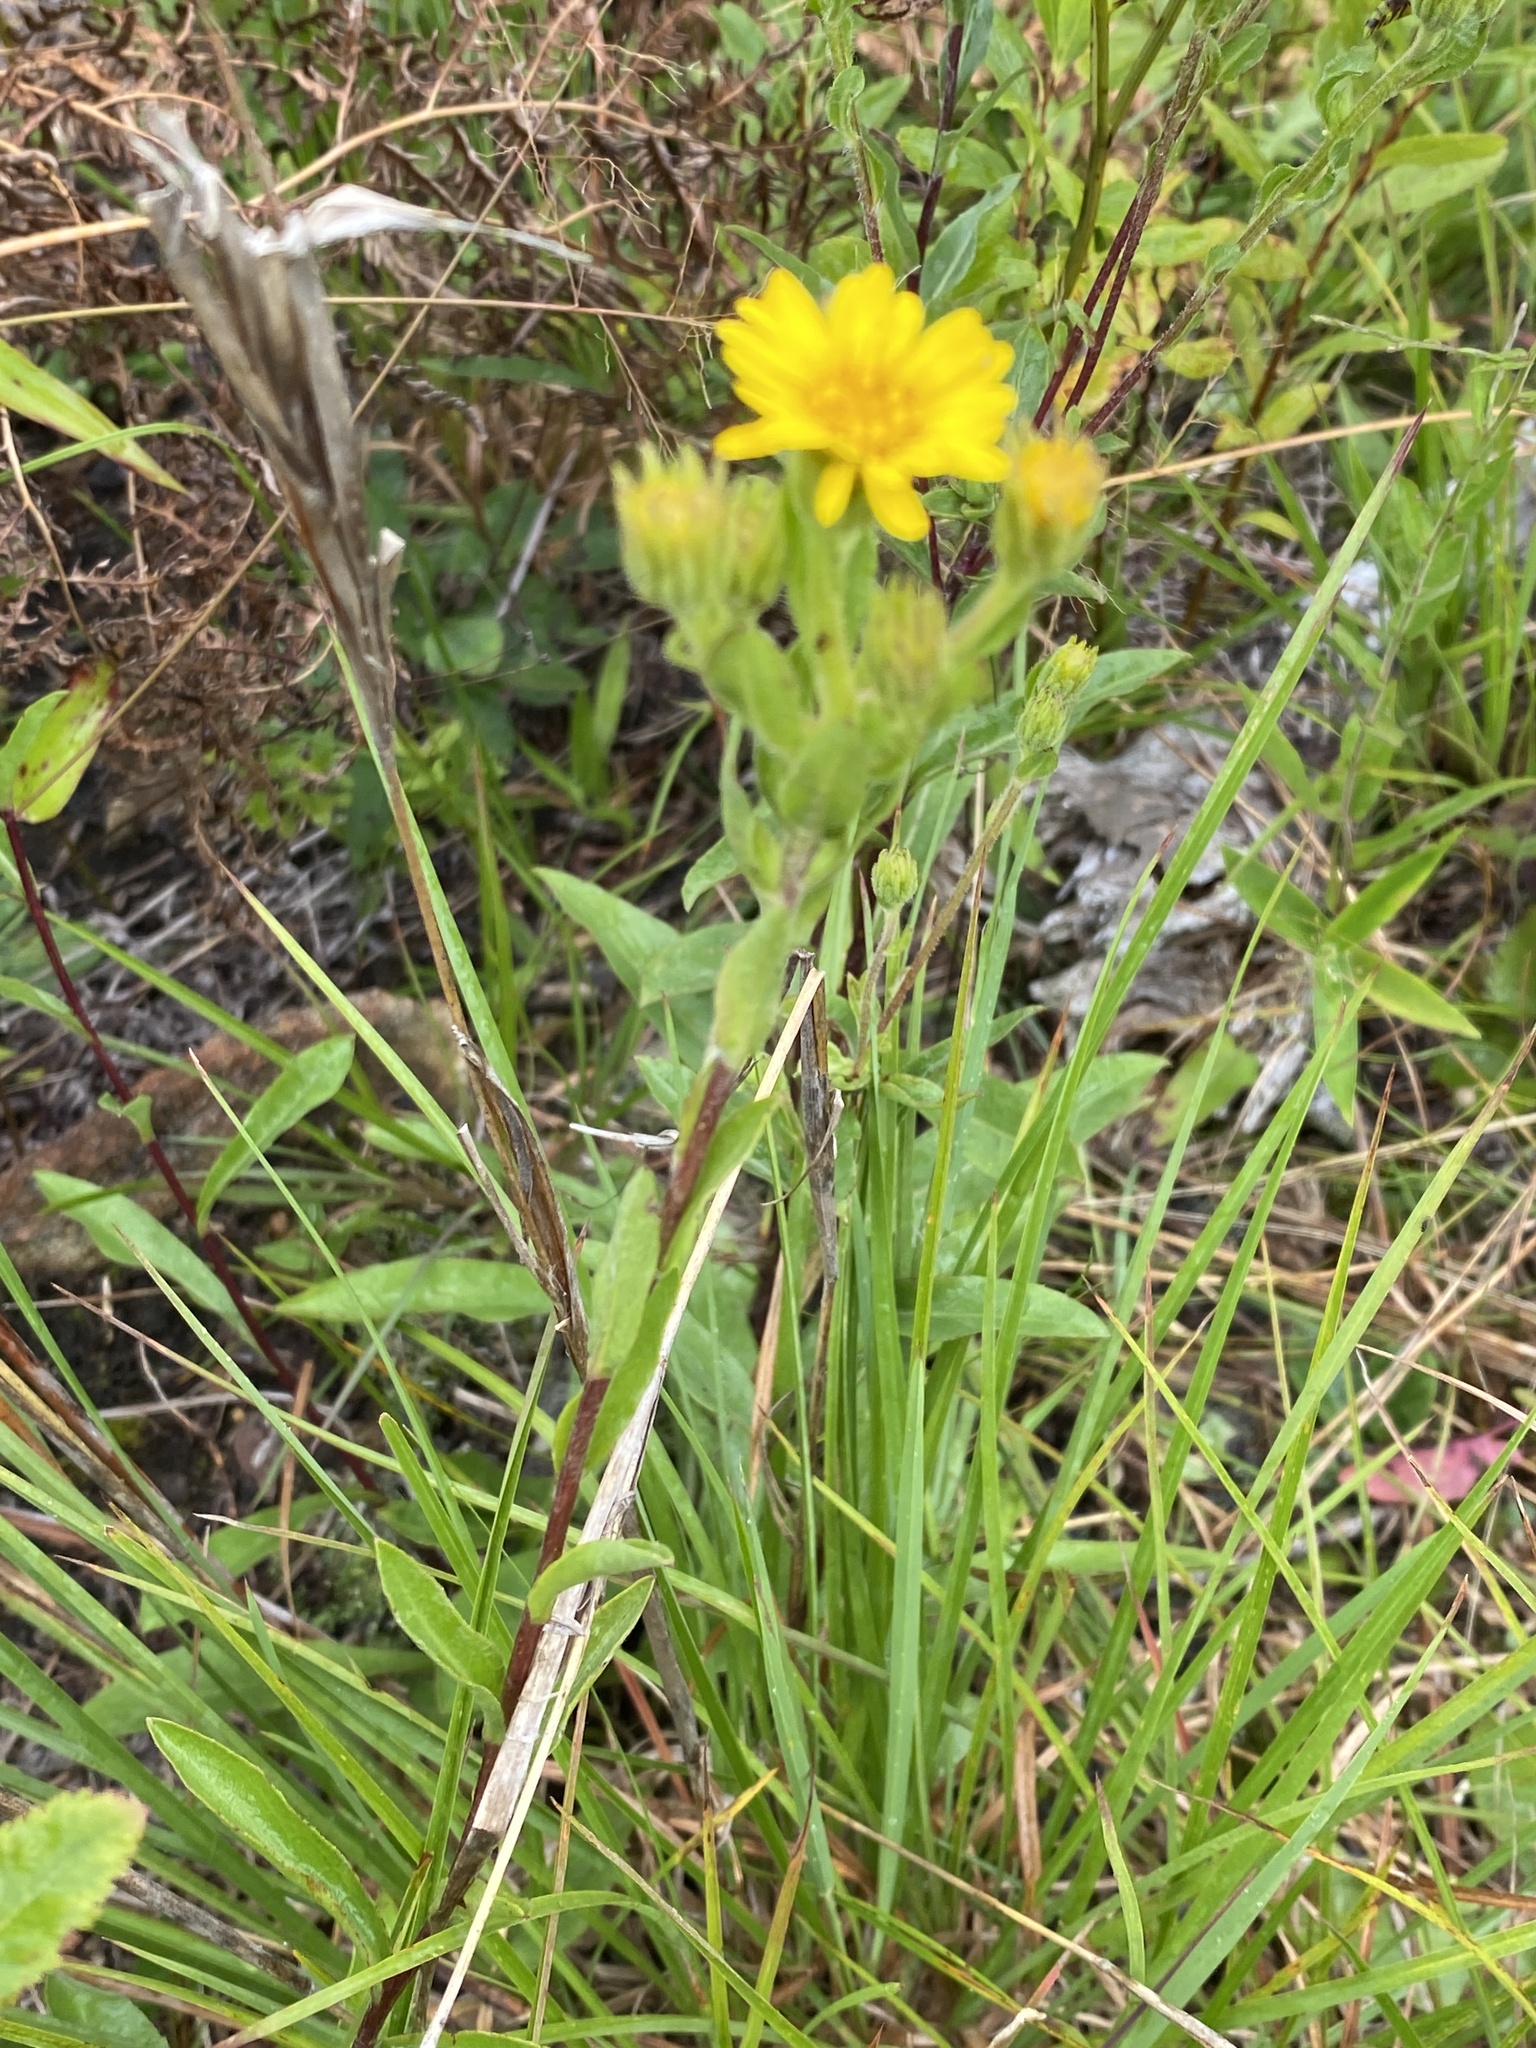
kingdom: Plantae
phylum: Tracheophyta
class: Magnoliopsida
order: Asterales
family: Asteraceae
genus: Chrysopsis
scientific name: Chrysopsis mariana
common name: Maryland golden-aster
